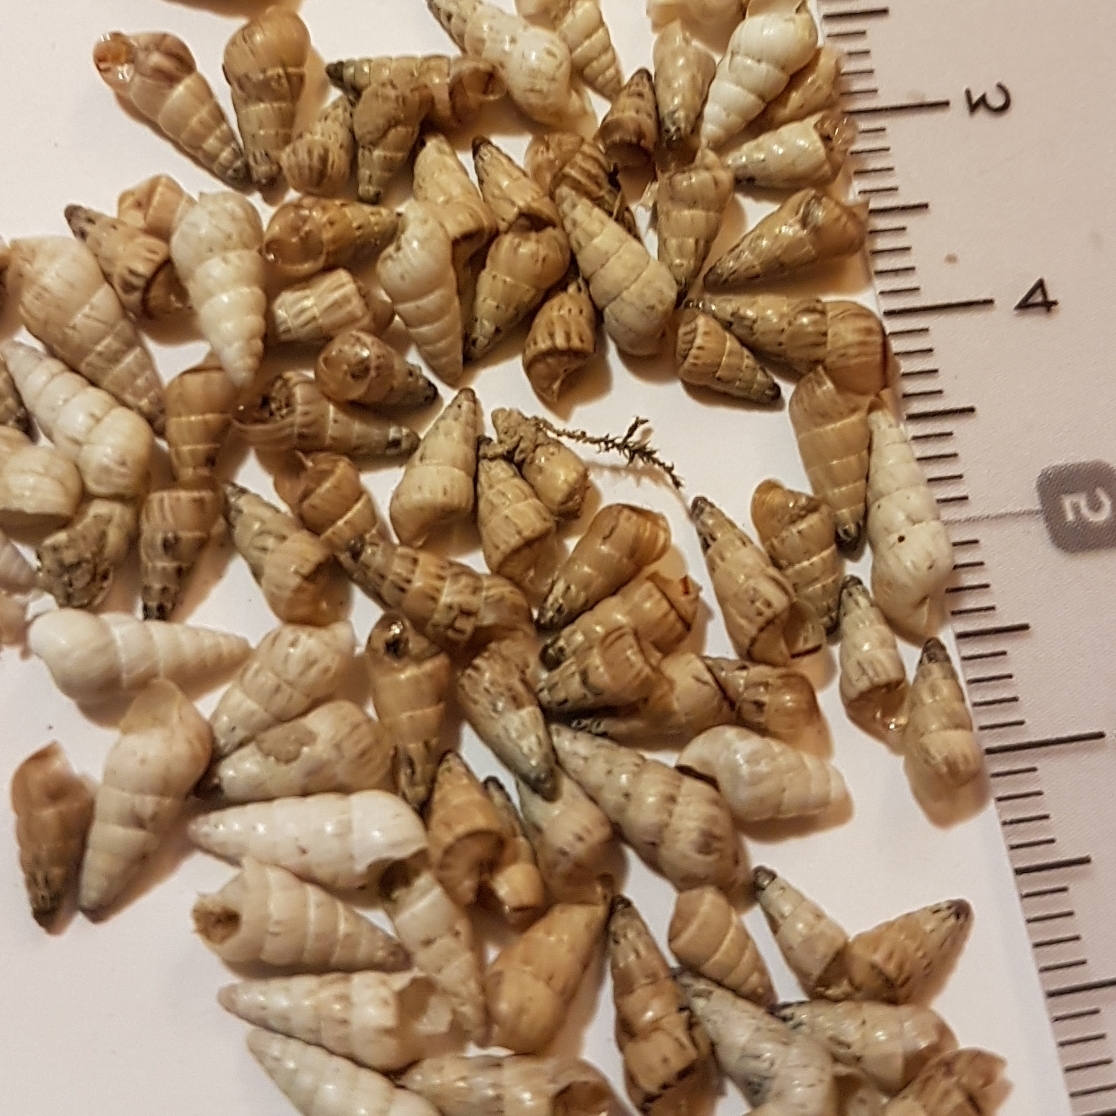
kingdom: Animalia
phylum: Mollusca
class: Gastropoda
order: Stylommatophora
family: Geomitridae
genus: Cochlicella
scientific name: Cochlicella acuta
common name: Pointed snail
